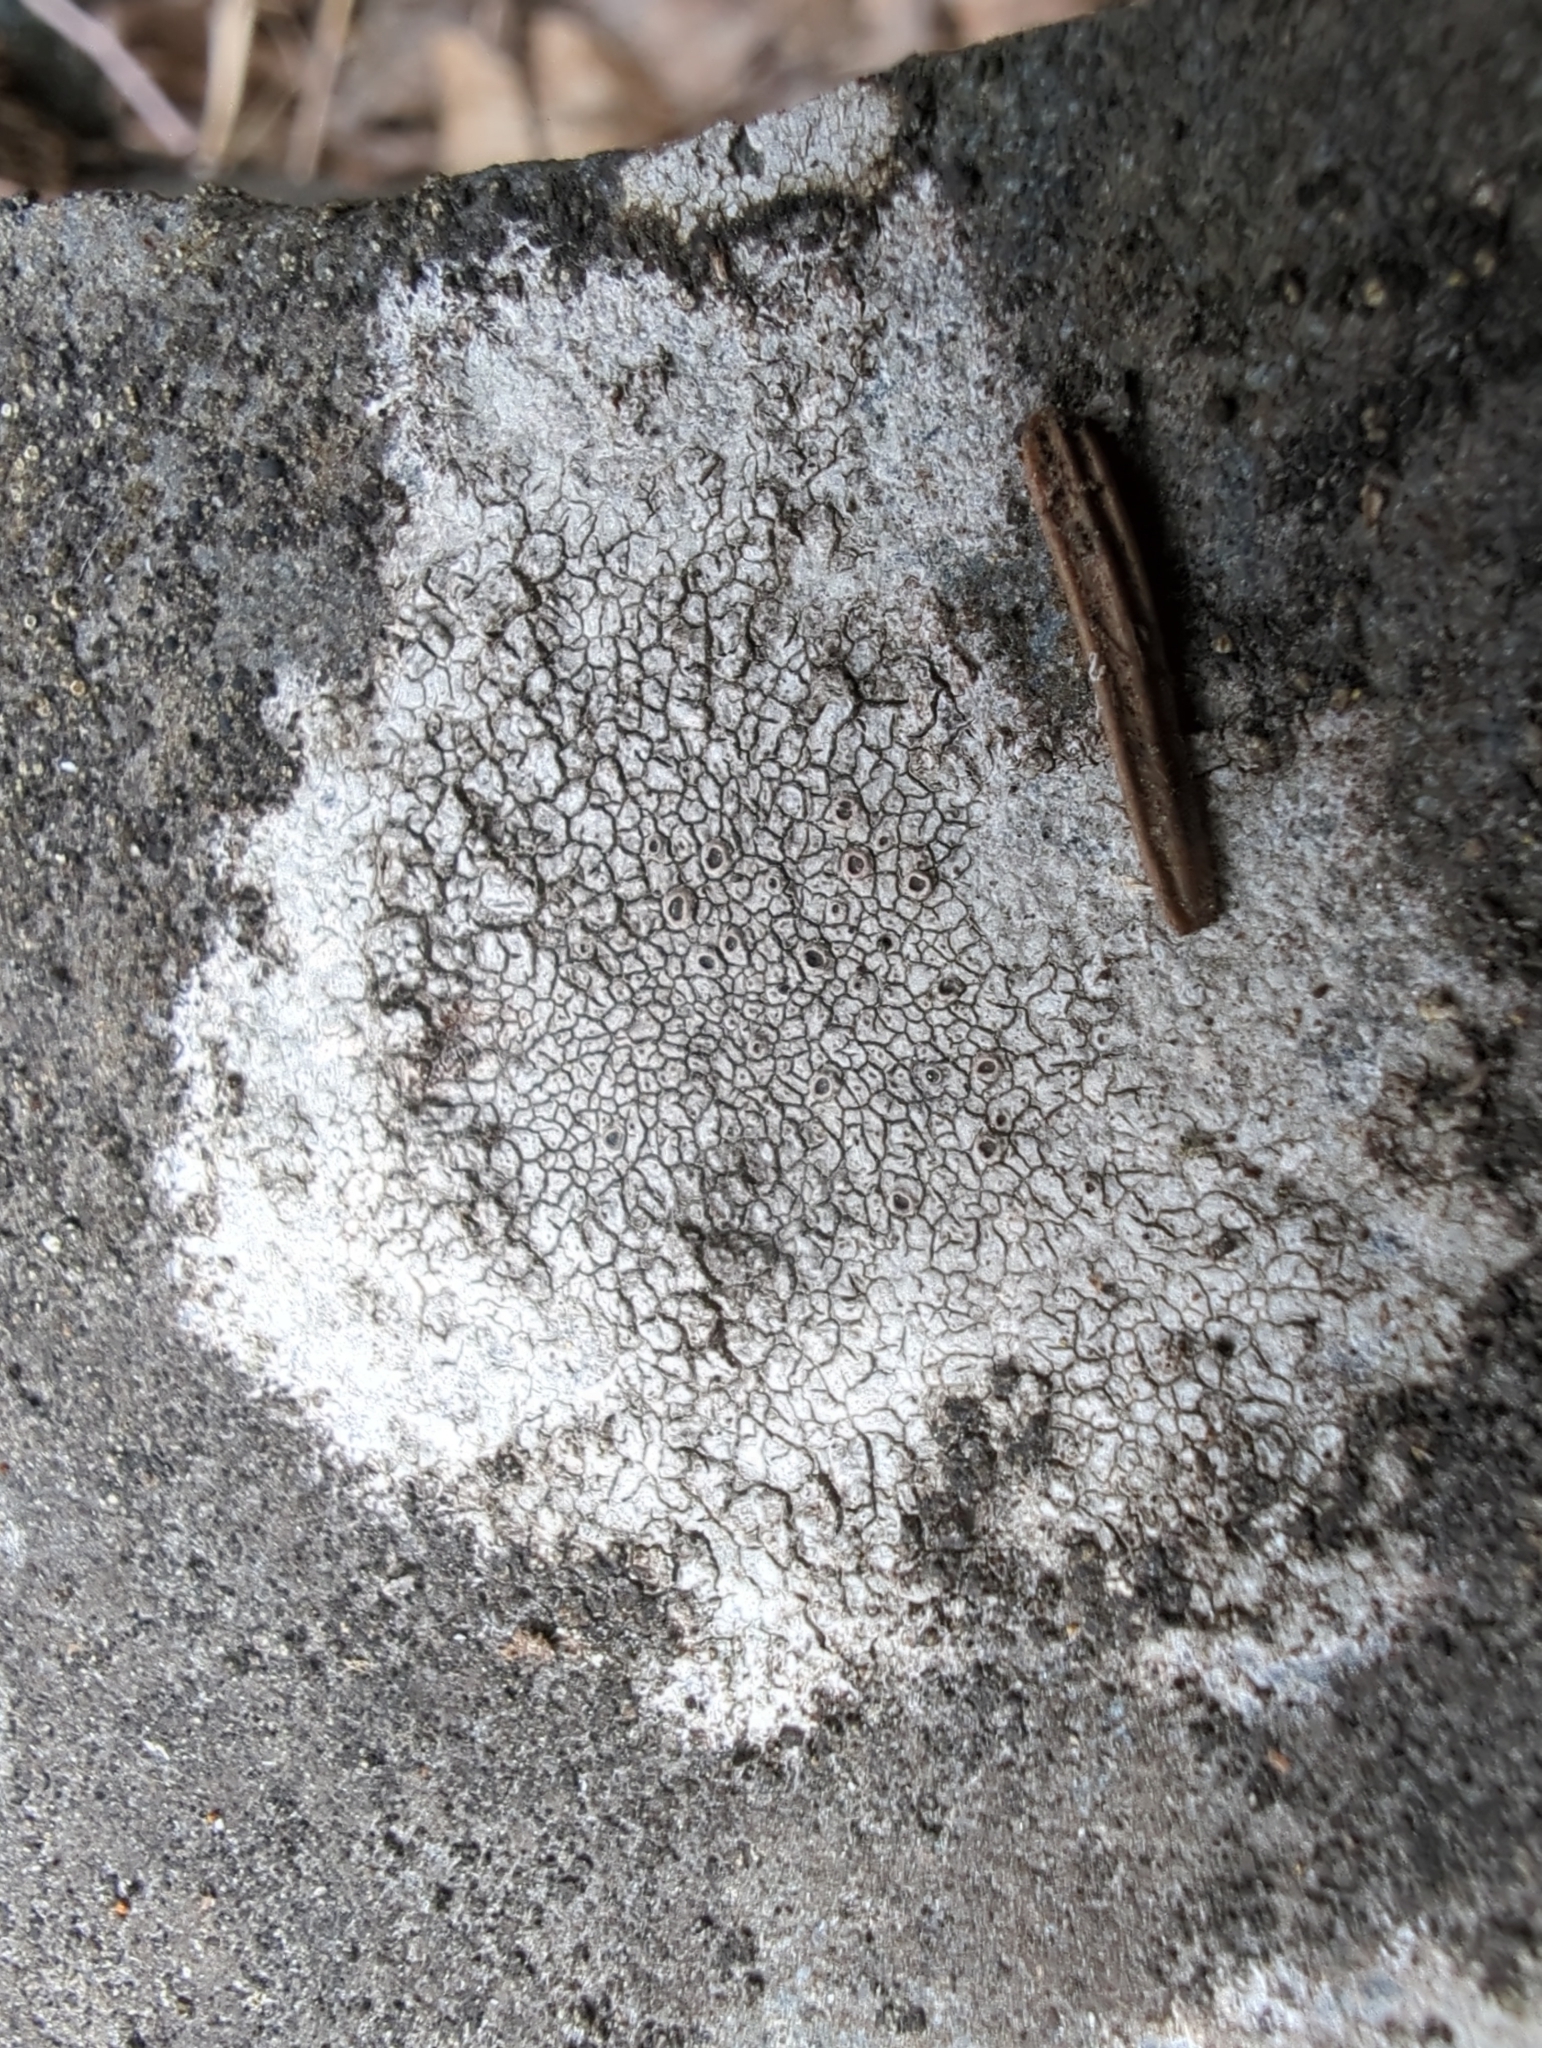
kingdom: Fungi
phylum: Ascomycota
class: Lecanoromycetes
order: Pertusariales
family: Megasporaceae
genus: Aspicilia
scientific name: Aspicilia cinerea
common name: Cinder lichen
